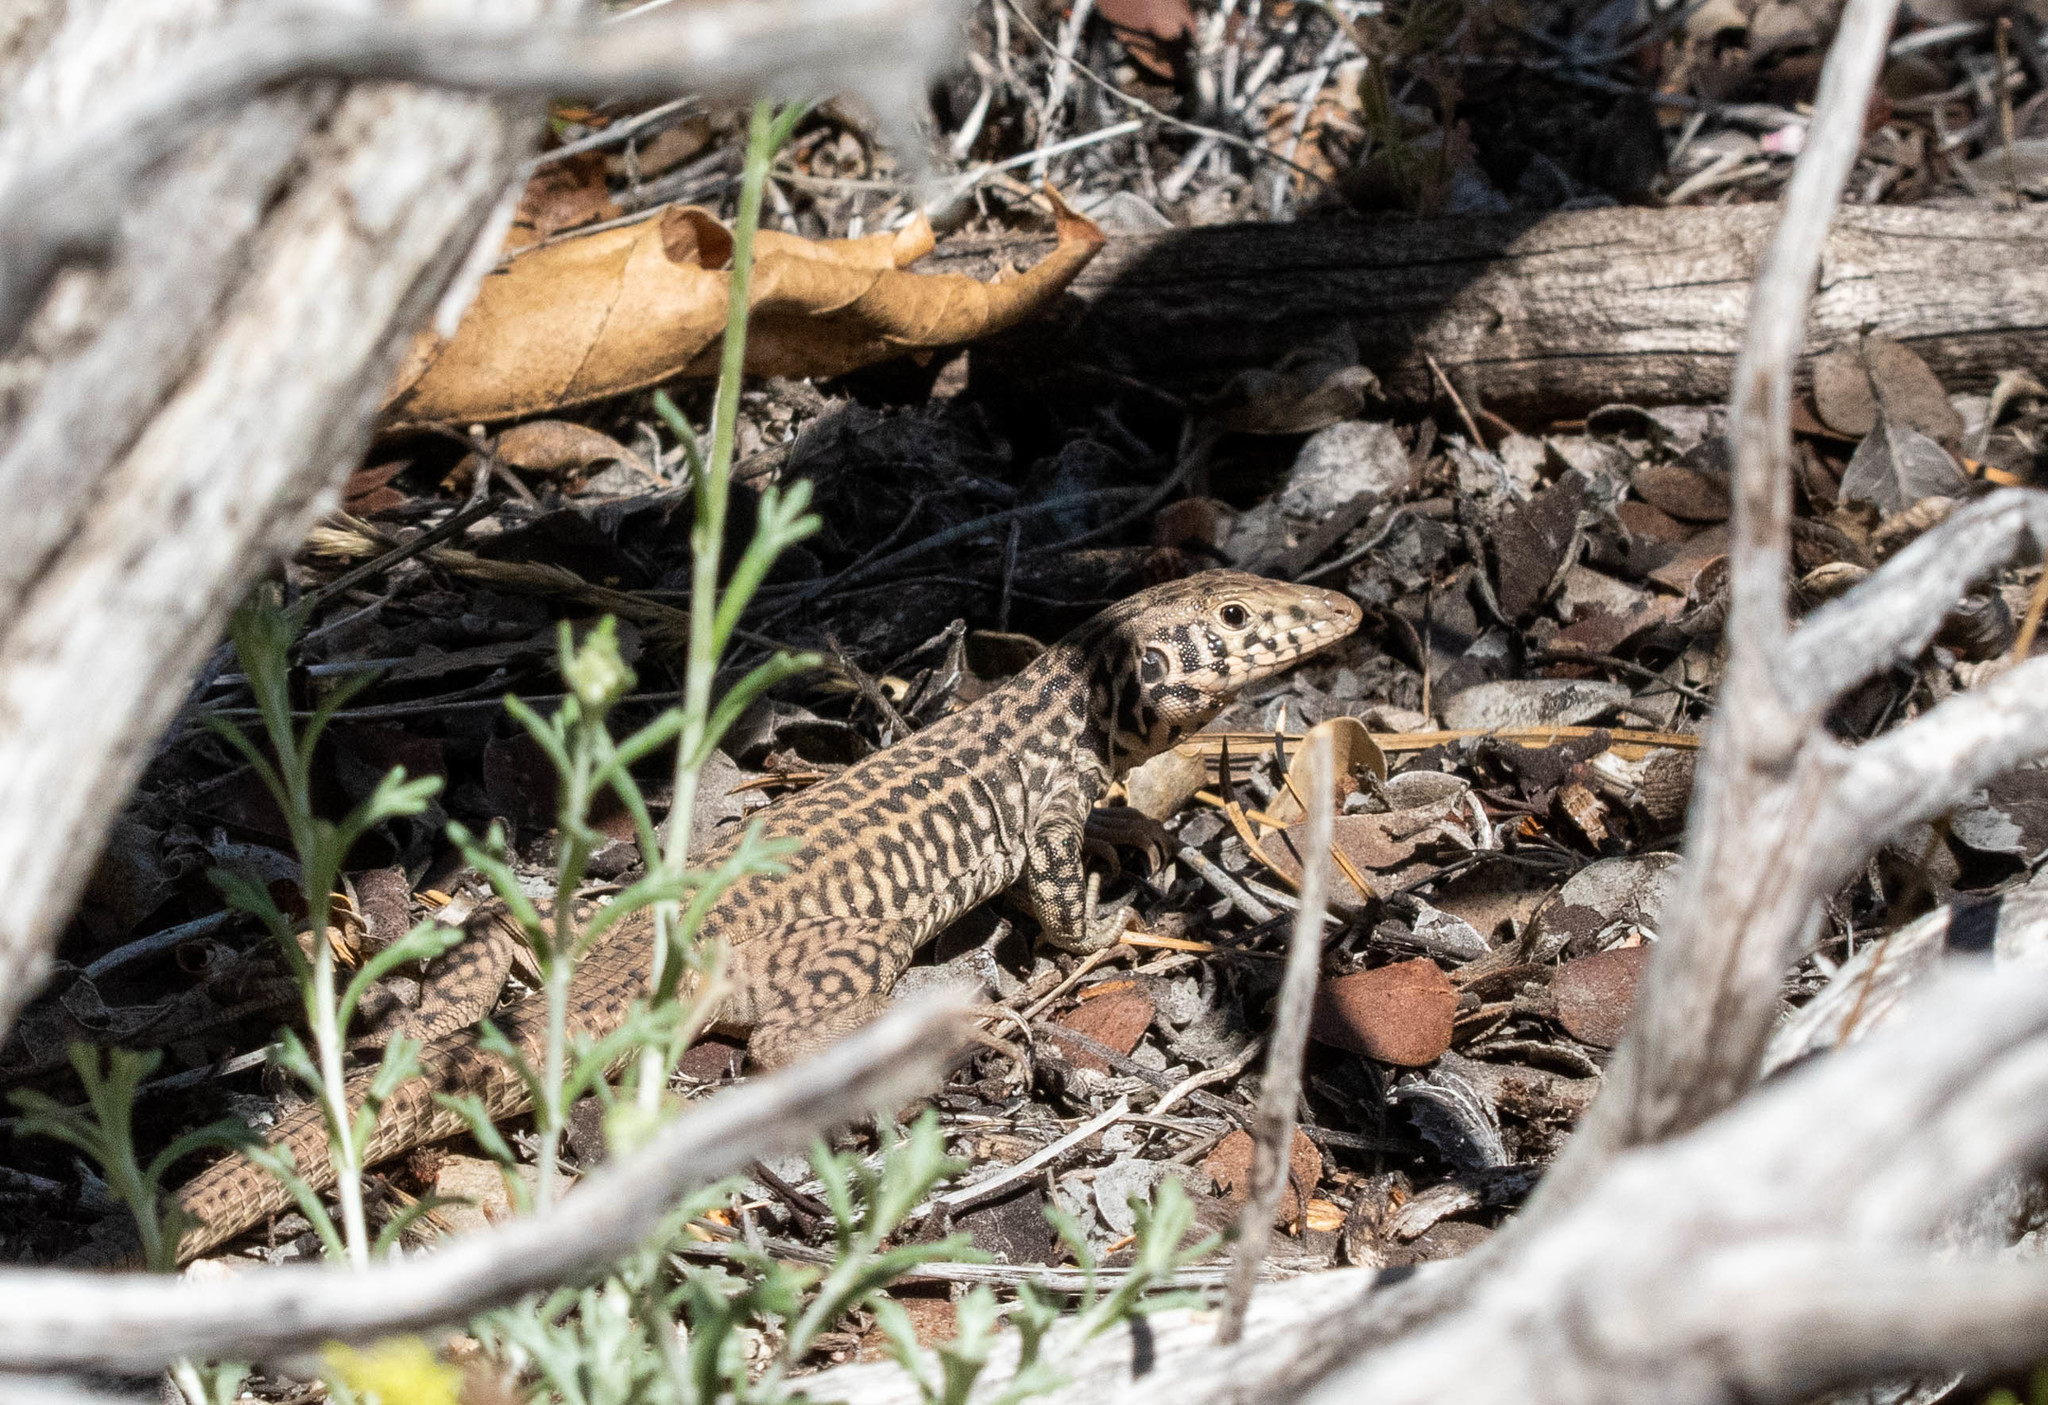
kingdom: Animalia
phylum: Chordata
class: Squamata
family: Teiidae
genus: Aspidoscelis
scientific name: Aspidoscelis tigris
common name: Tiger whiptail
